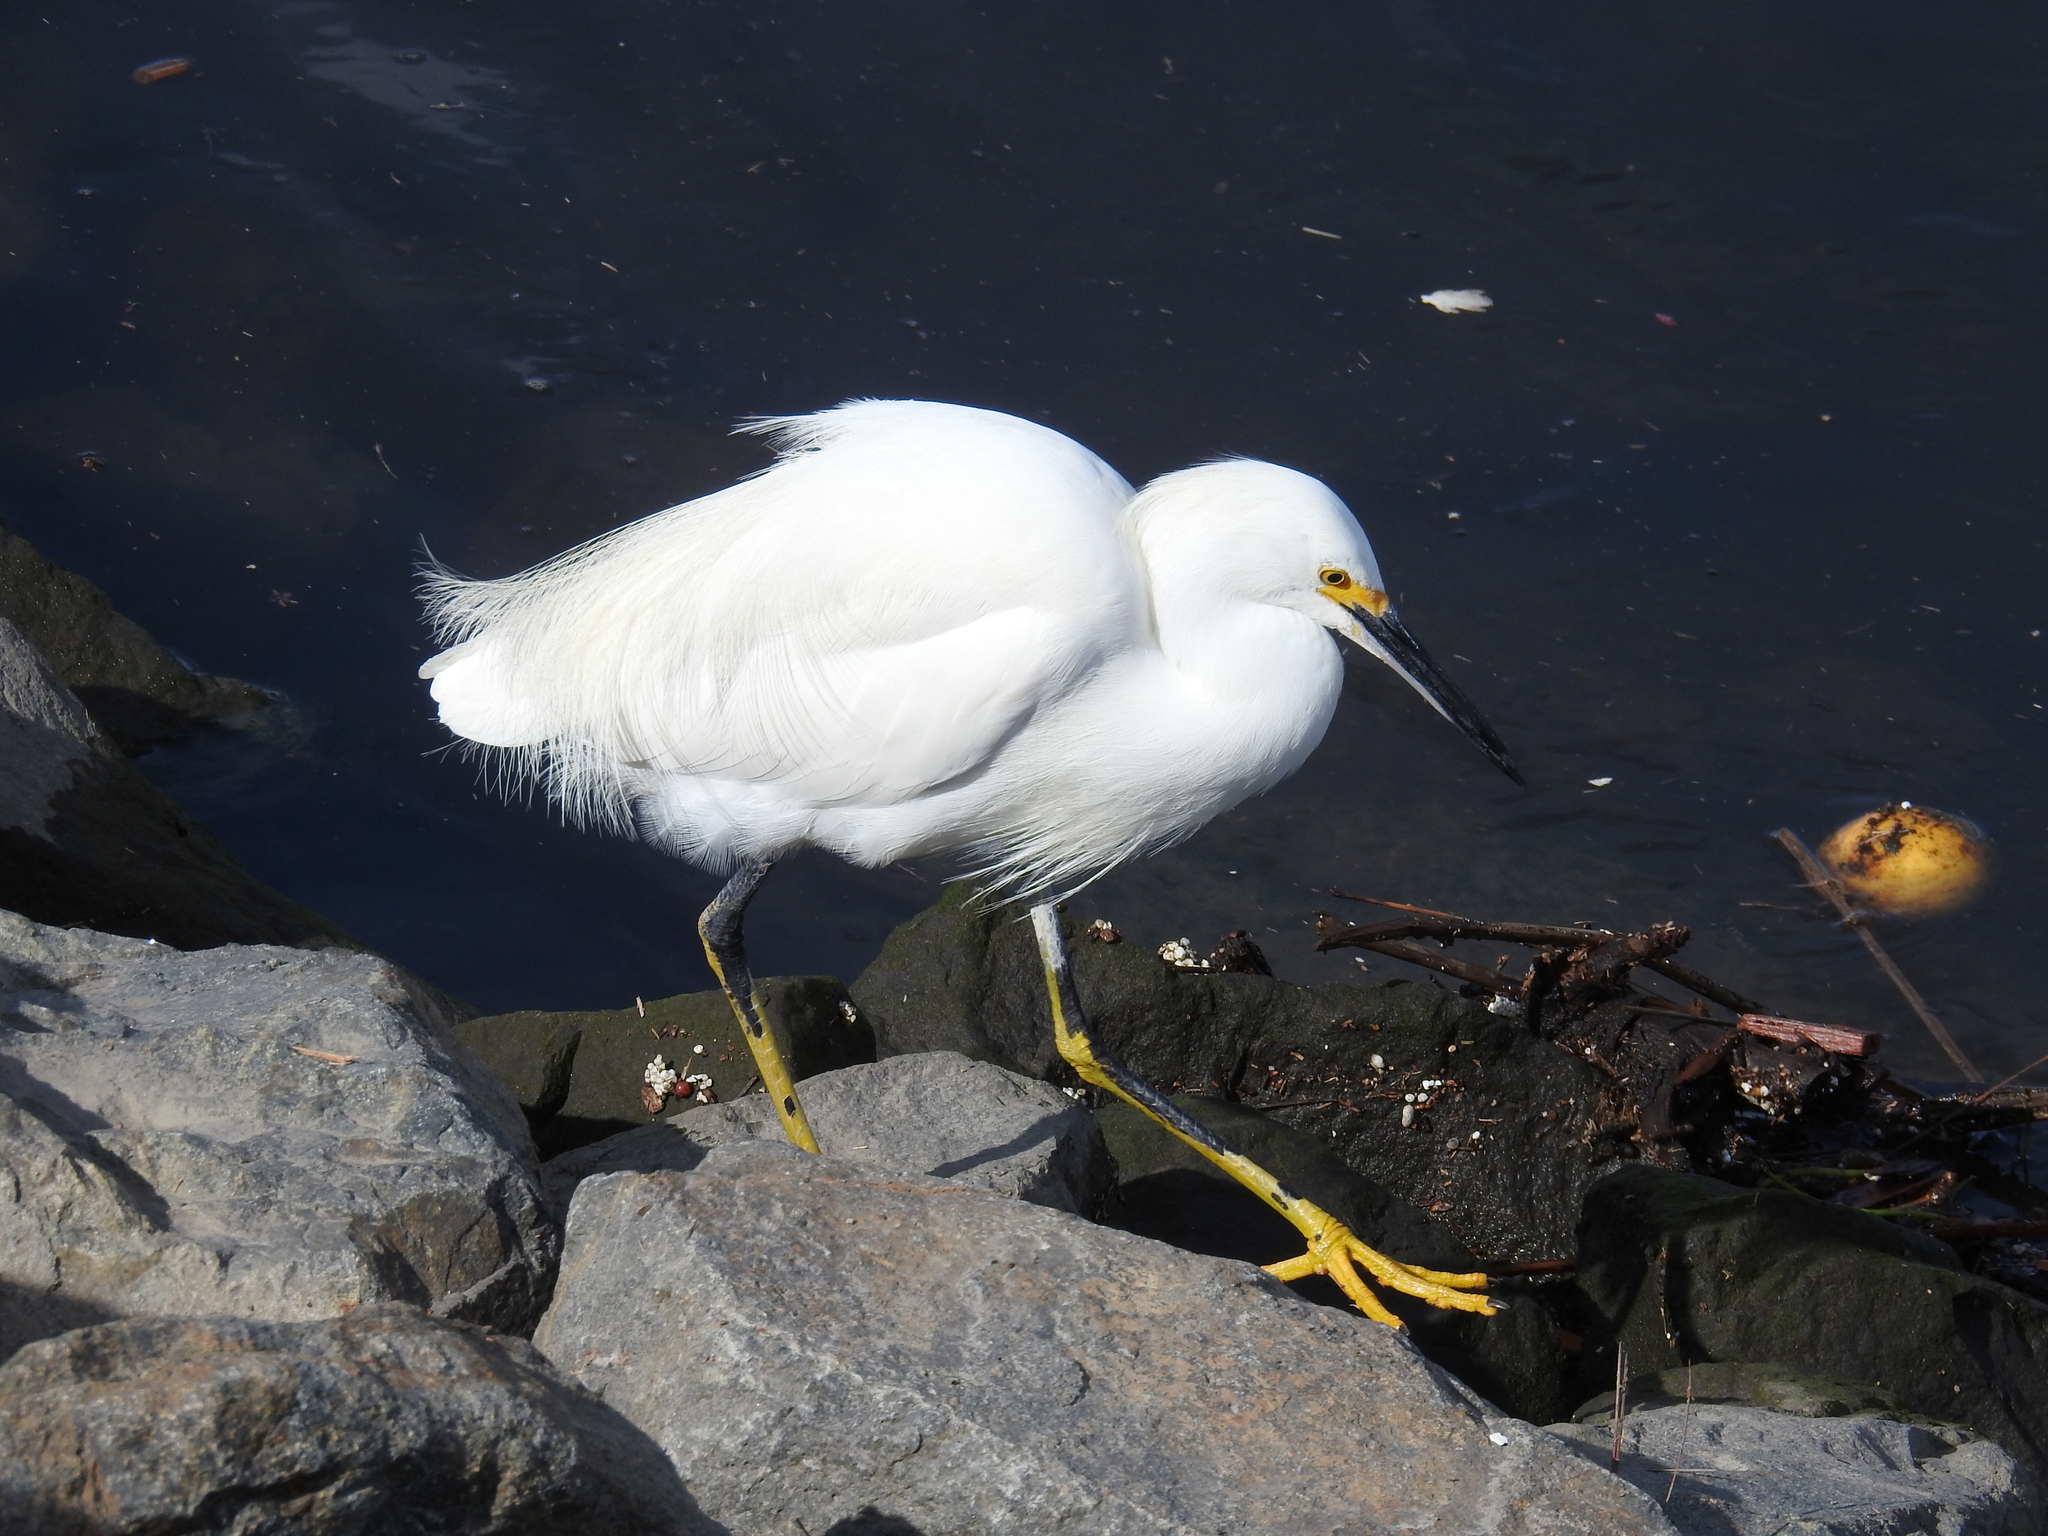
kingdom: Animalia
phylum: Chordata
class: Aves
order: Pelecaniformes
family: Ardeidae
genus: Egretta
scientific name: Egretta thula
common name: Snowy egret
